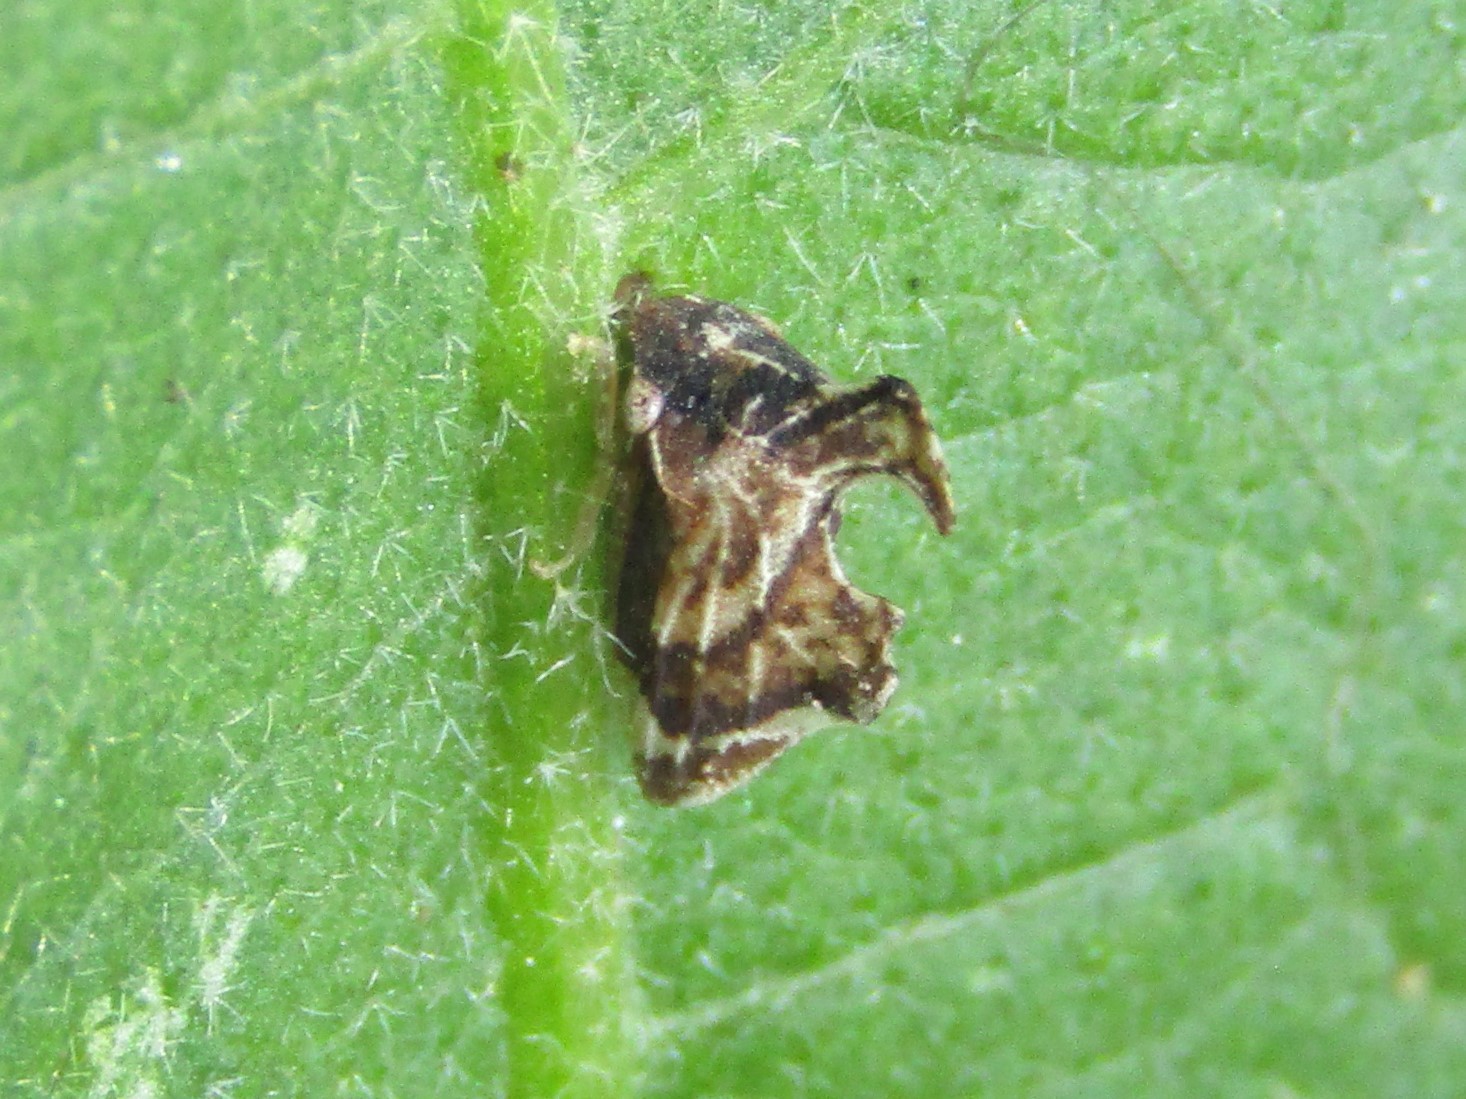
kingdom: Animalia
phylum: Arthropoda
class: Insecta
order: Hemiptera
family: Membracidae
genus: Entylia
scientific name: Entylia carinata
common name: Keeled treehopper
